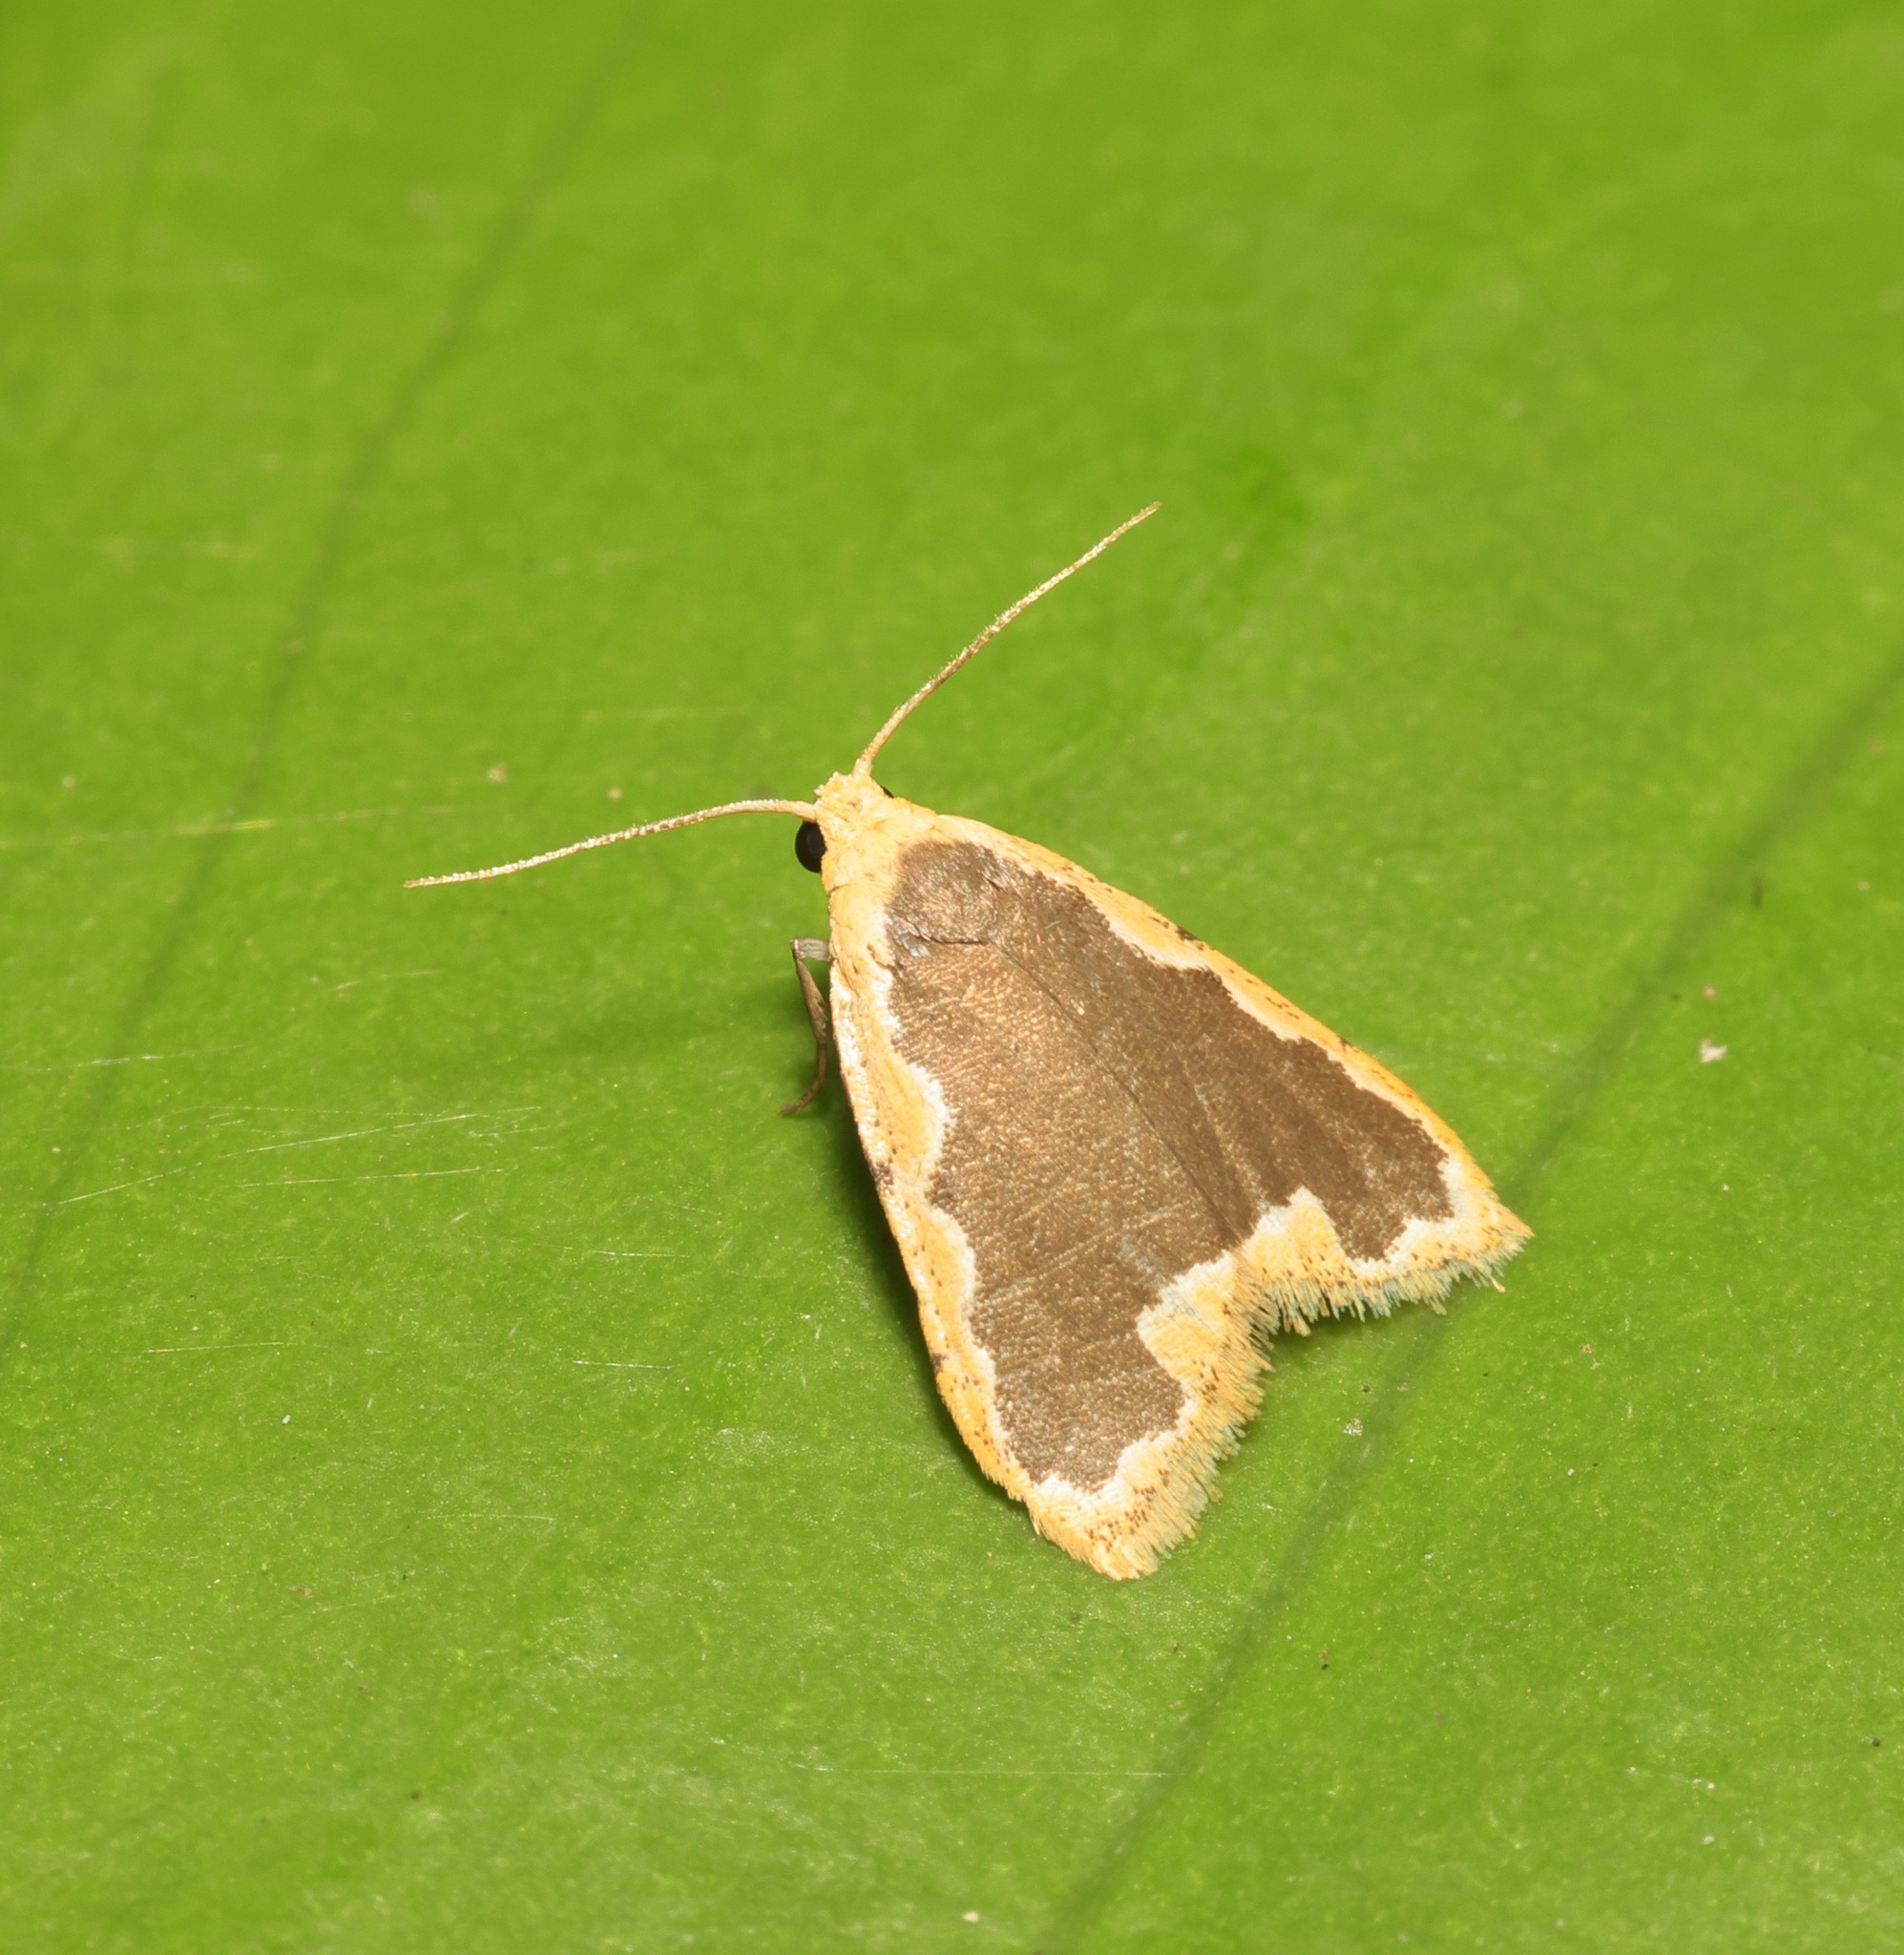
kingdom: Animalia
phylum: Arthropoda
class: Insecta
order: Lepidoptera
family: Erebidae
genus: Diduga
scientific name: Diduga flavicostata
